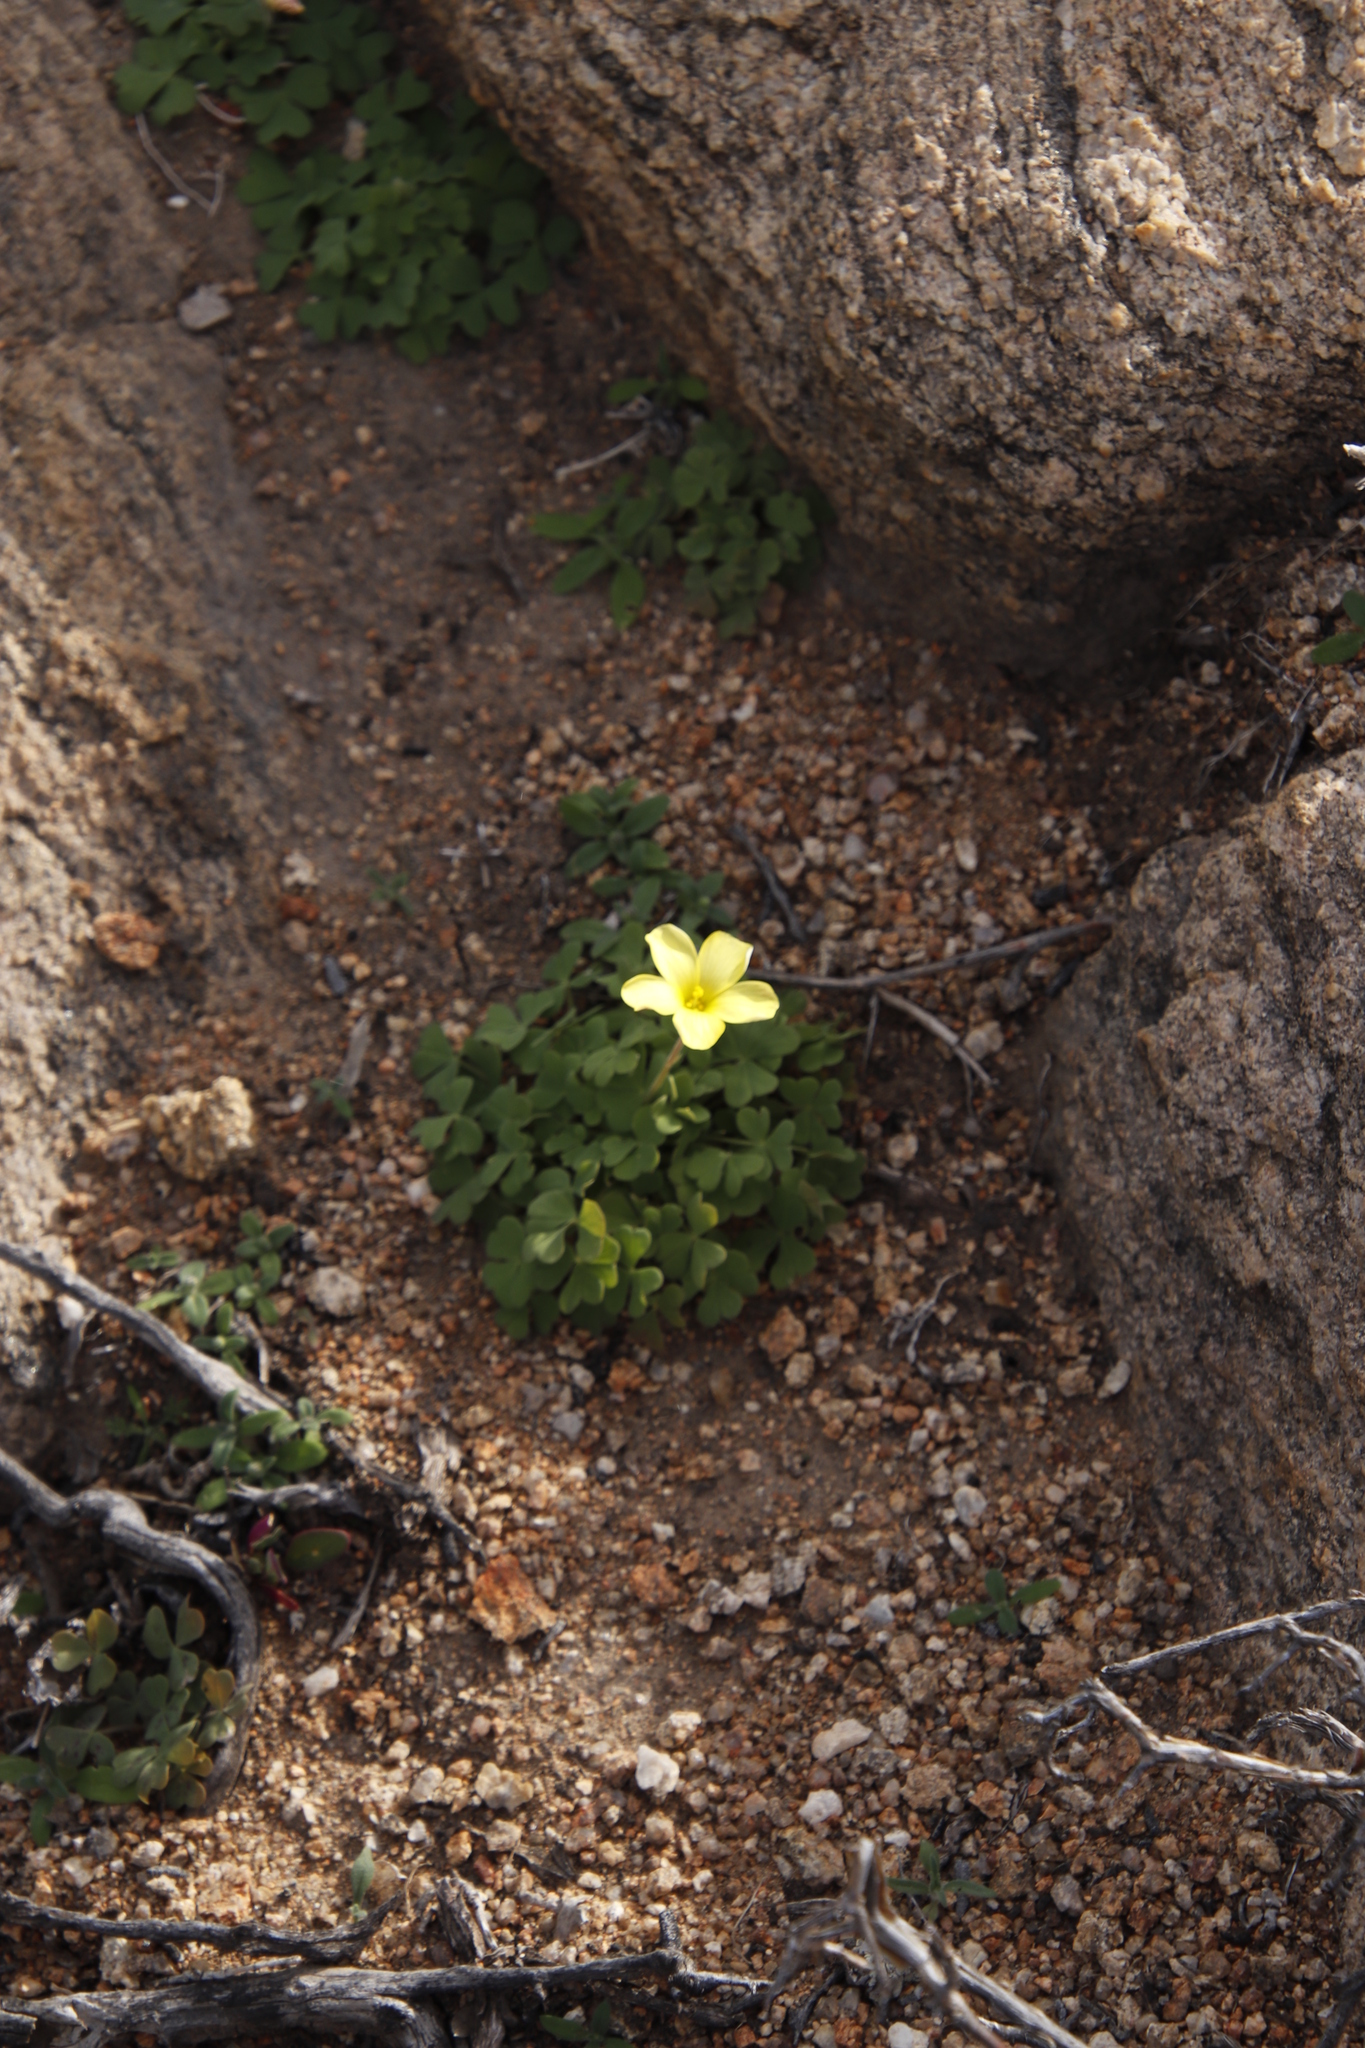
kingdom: Plantae
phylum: Tracheophyta
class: Magnoliopsida
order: Oxalidales
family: Oxalidaceae
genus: Oxalis
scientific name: Oxalis obtusa
